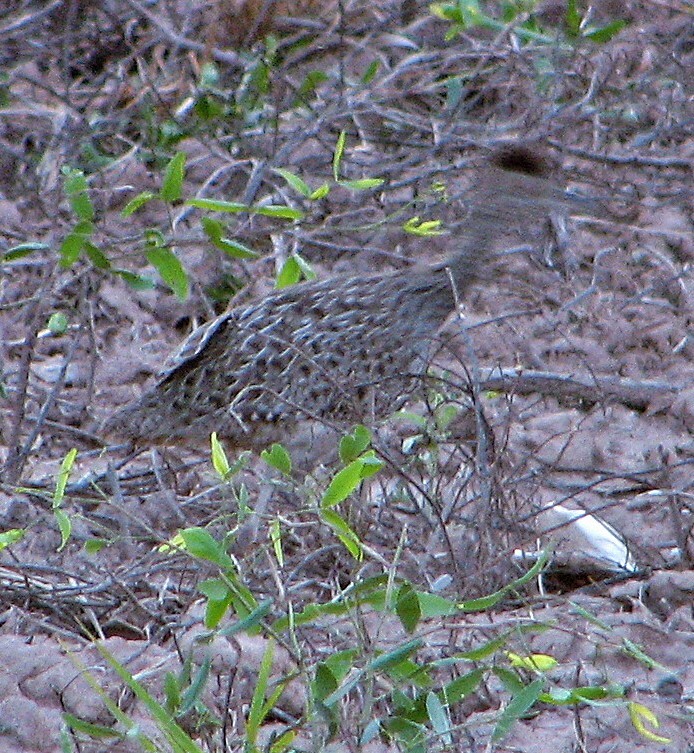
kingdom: Animalia
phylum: Chordata
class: Aves
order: Tinamiformes
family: Tinamidae
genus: Nothoprocta
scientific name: Nothoprocta cinerascens
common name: Brushland tinamou
